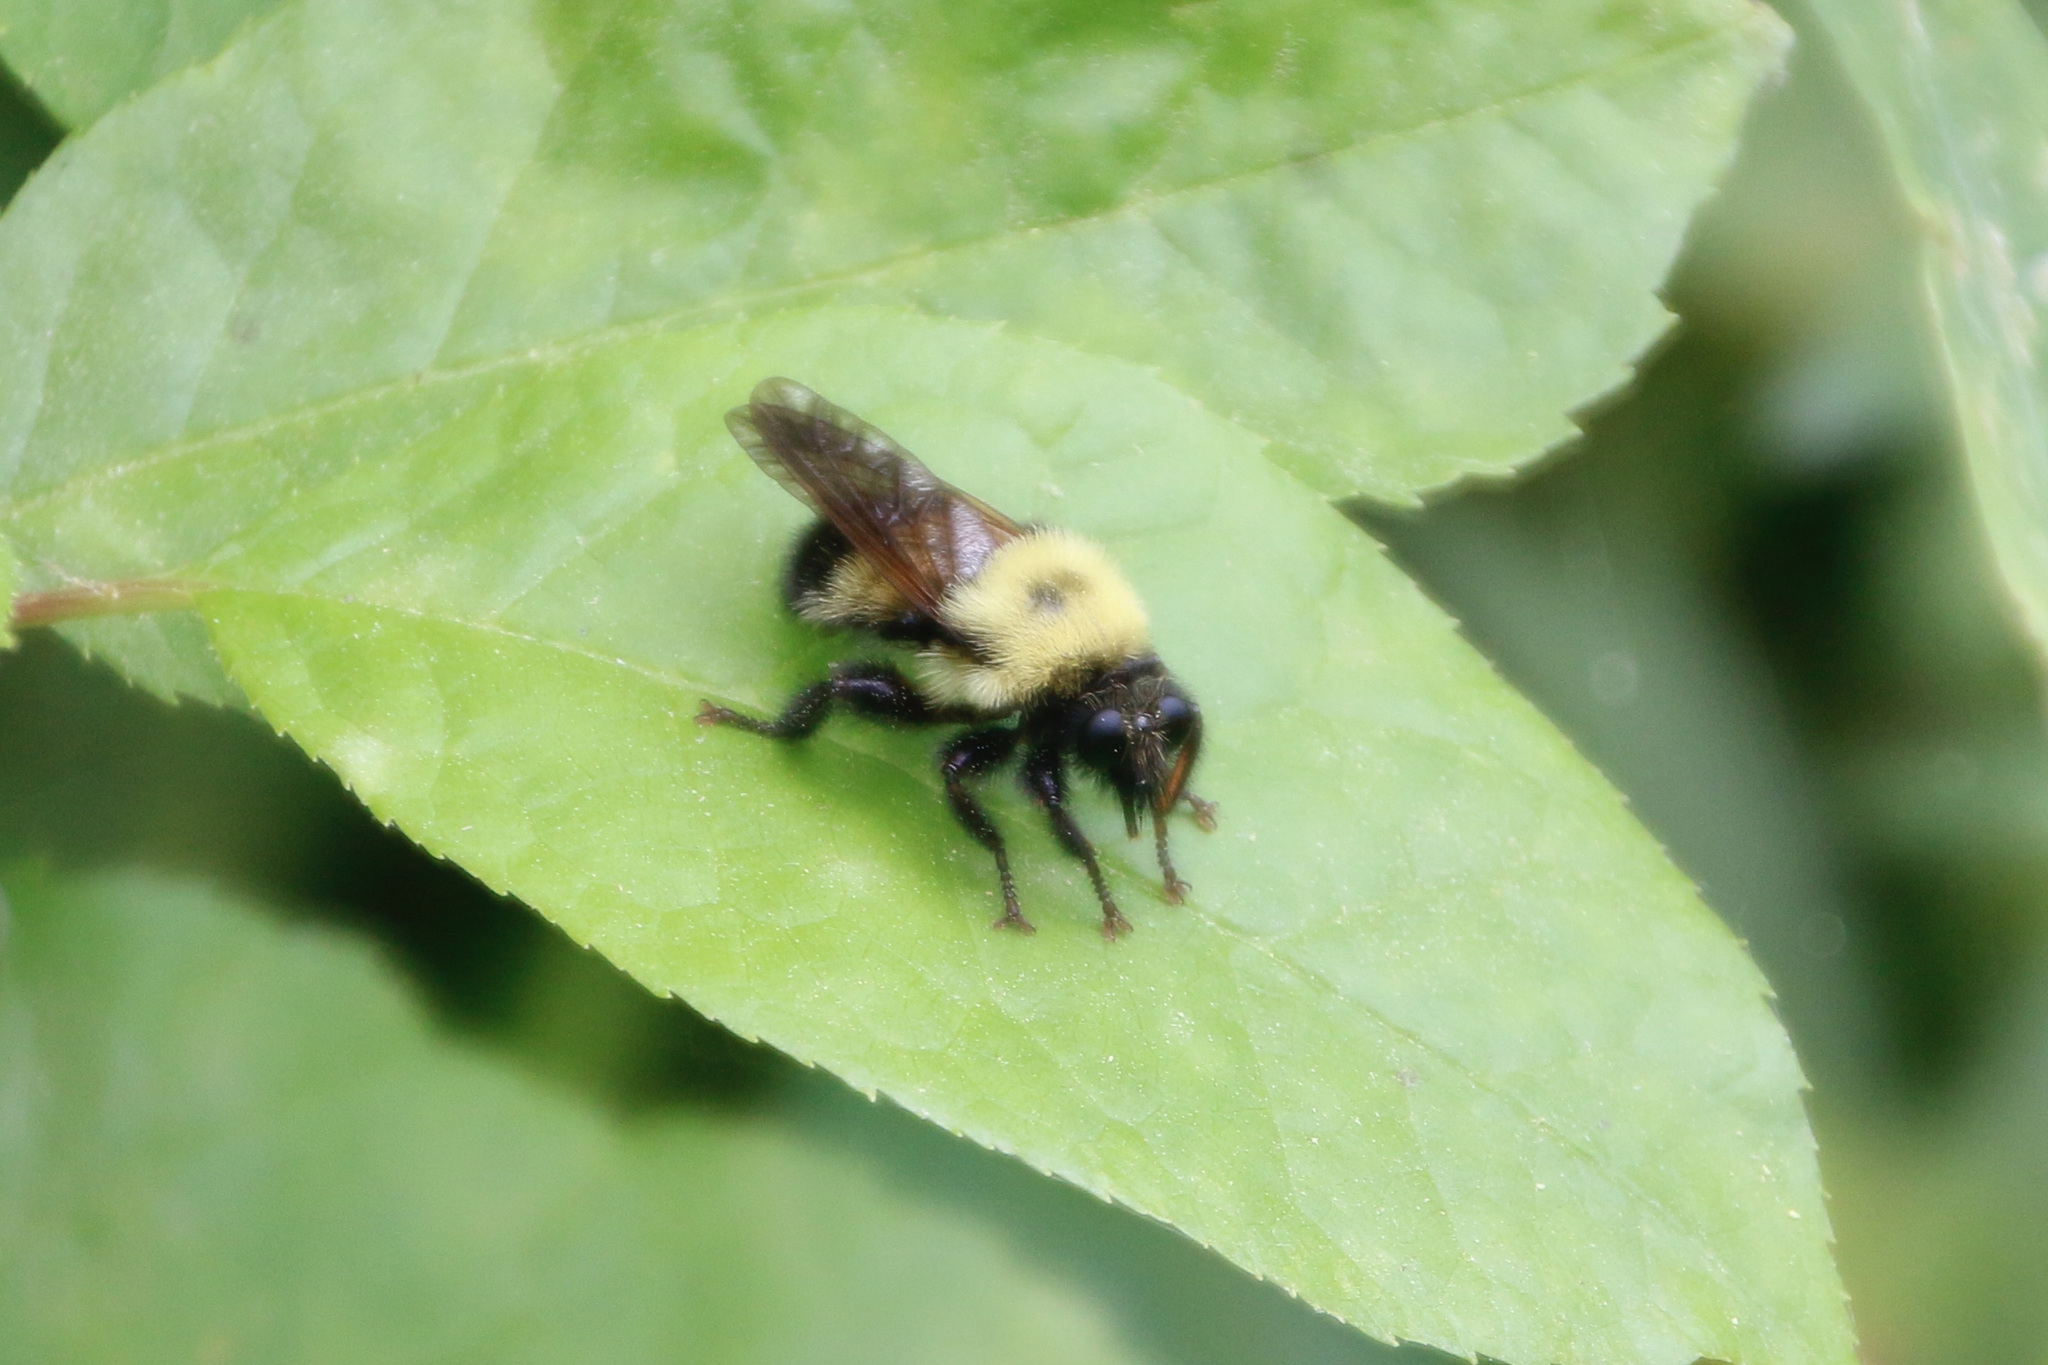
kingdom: Animalia
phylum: Arthropoda
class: Insecta
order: Diptera
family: Asilidae
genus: Laphria
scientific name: Laphria thoracica
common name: Bumble bee mimic robber fly
